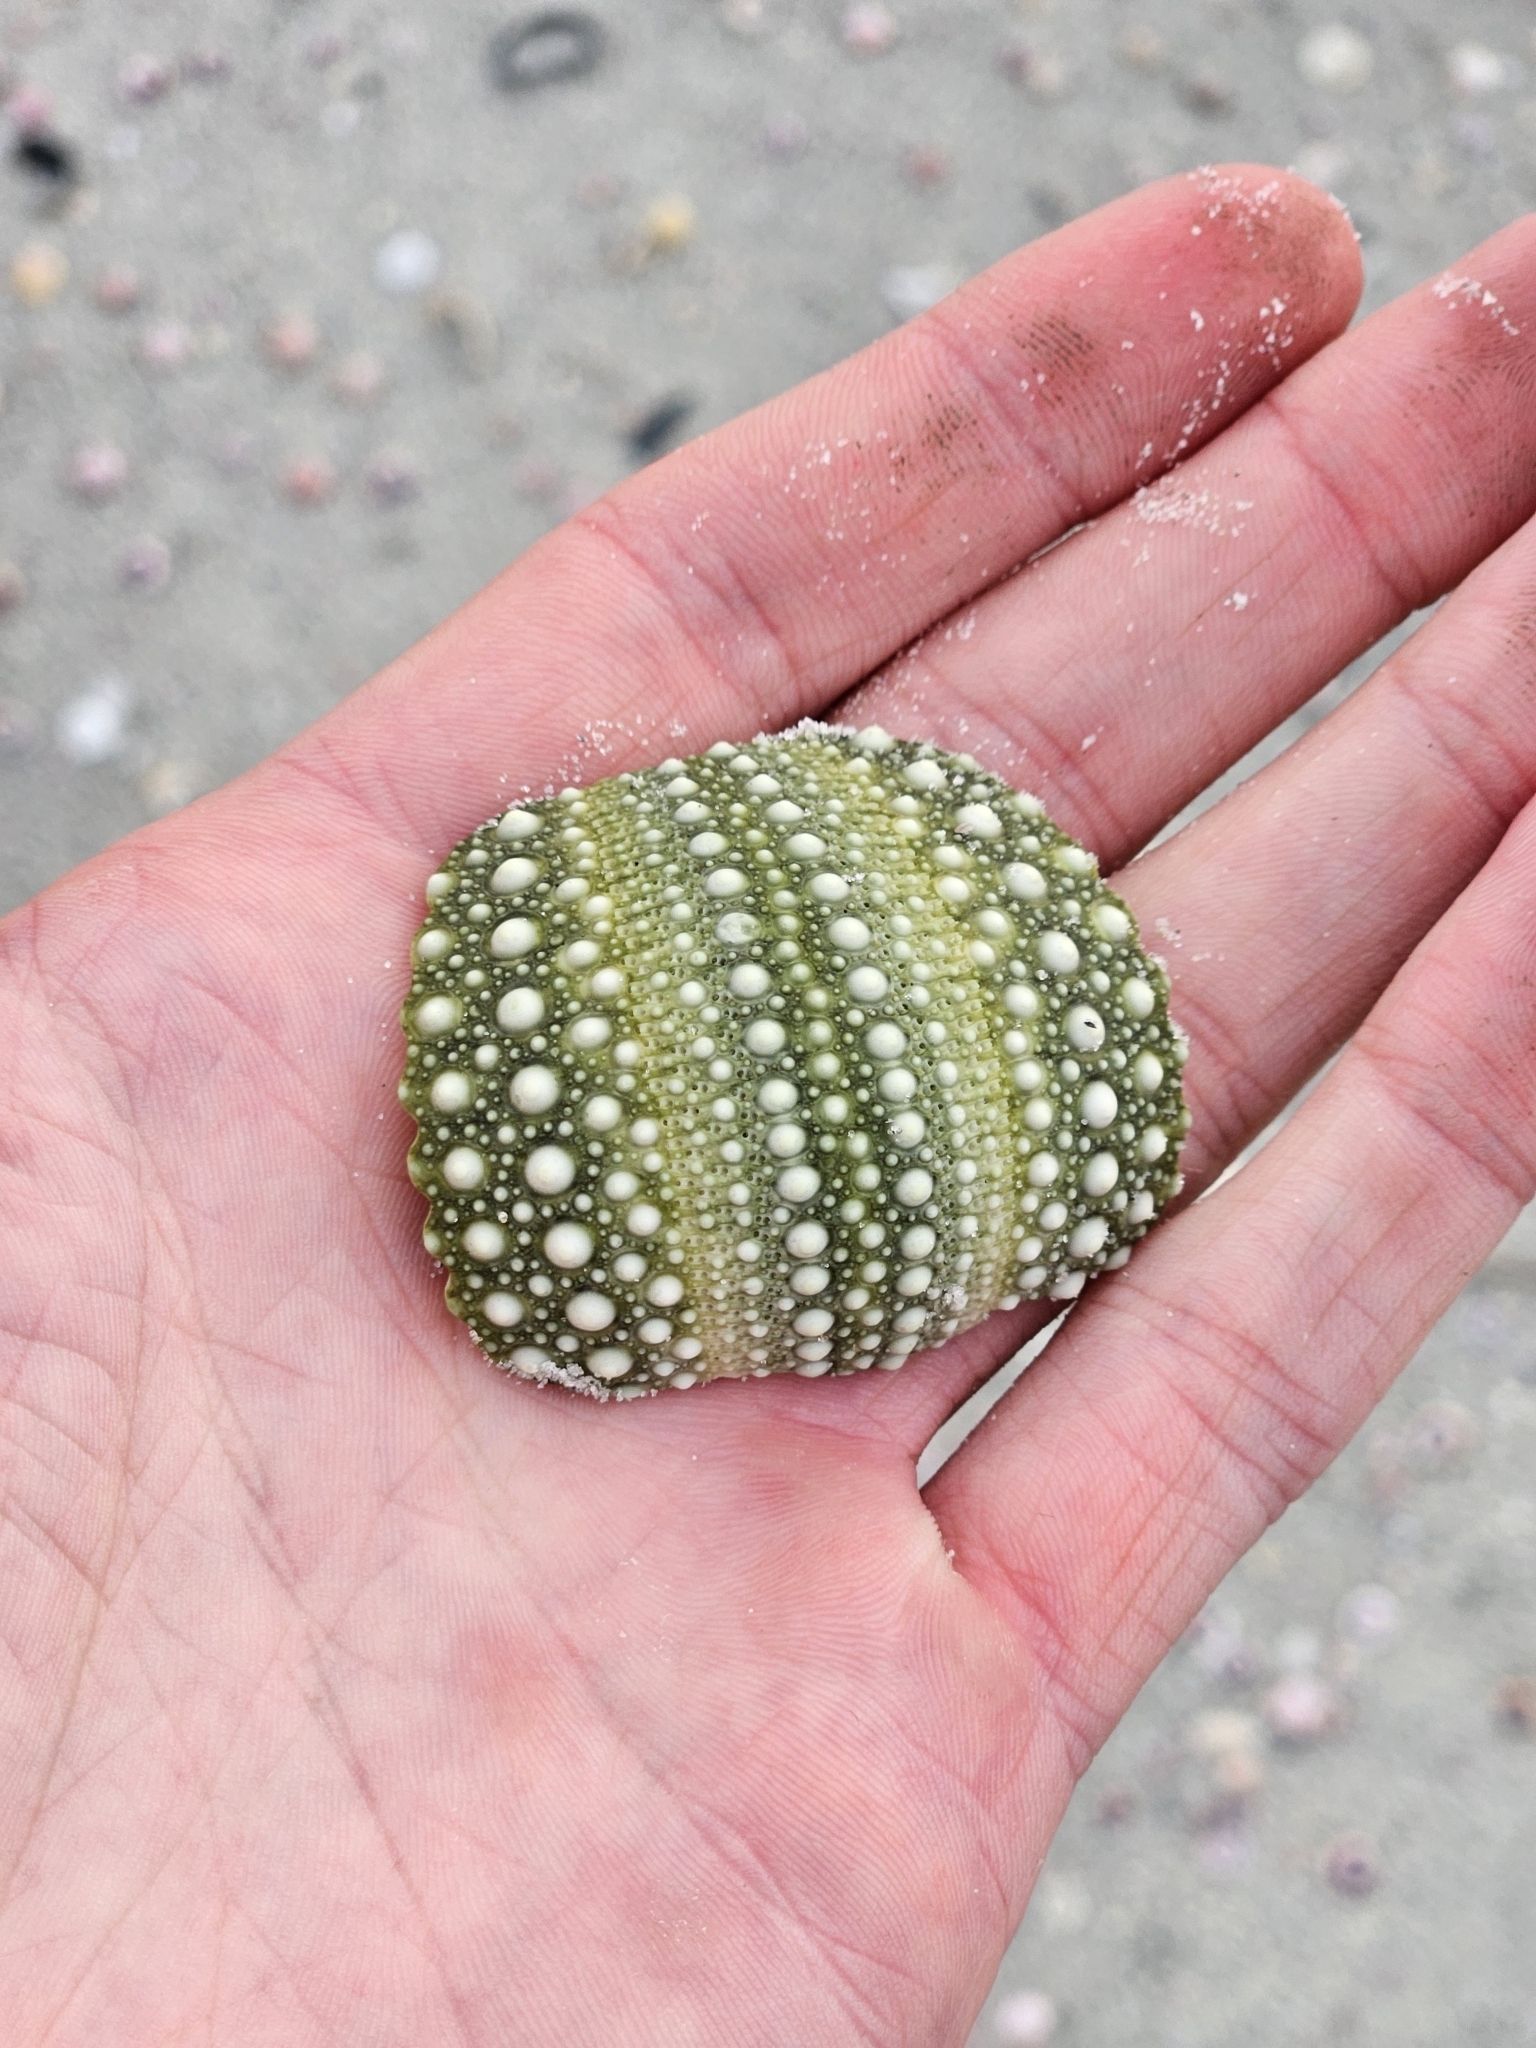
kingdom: Animalia
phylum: Echinodermata
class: Echinoidea
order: Camarodonta
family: Echinometridae
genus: Evechinus
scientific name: Evechinus chloroticus
